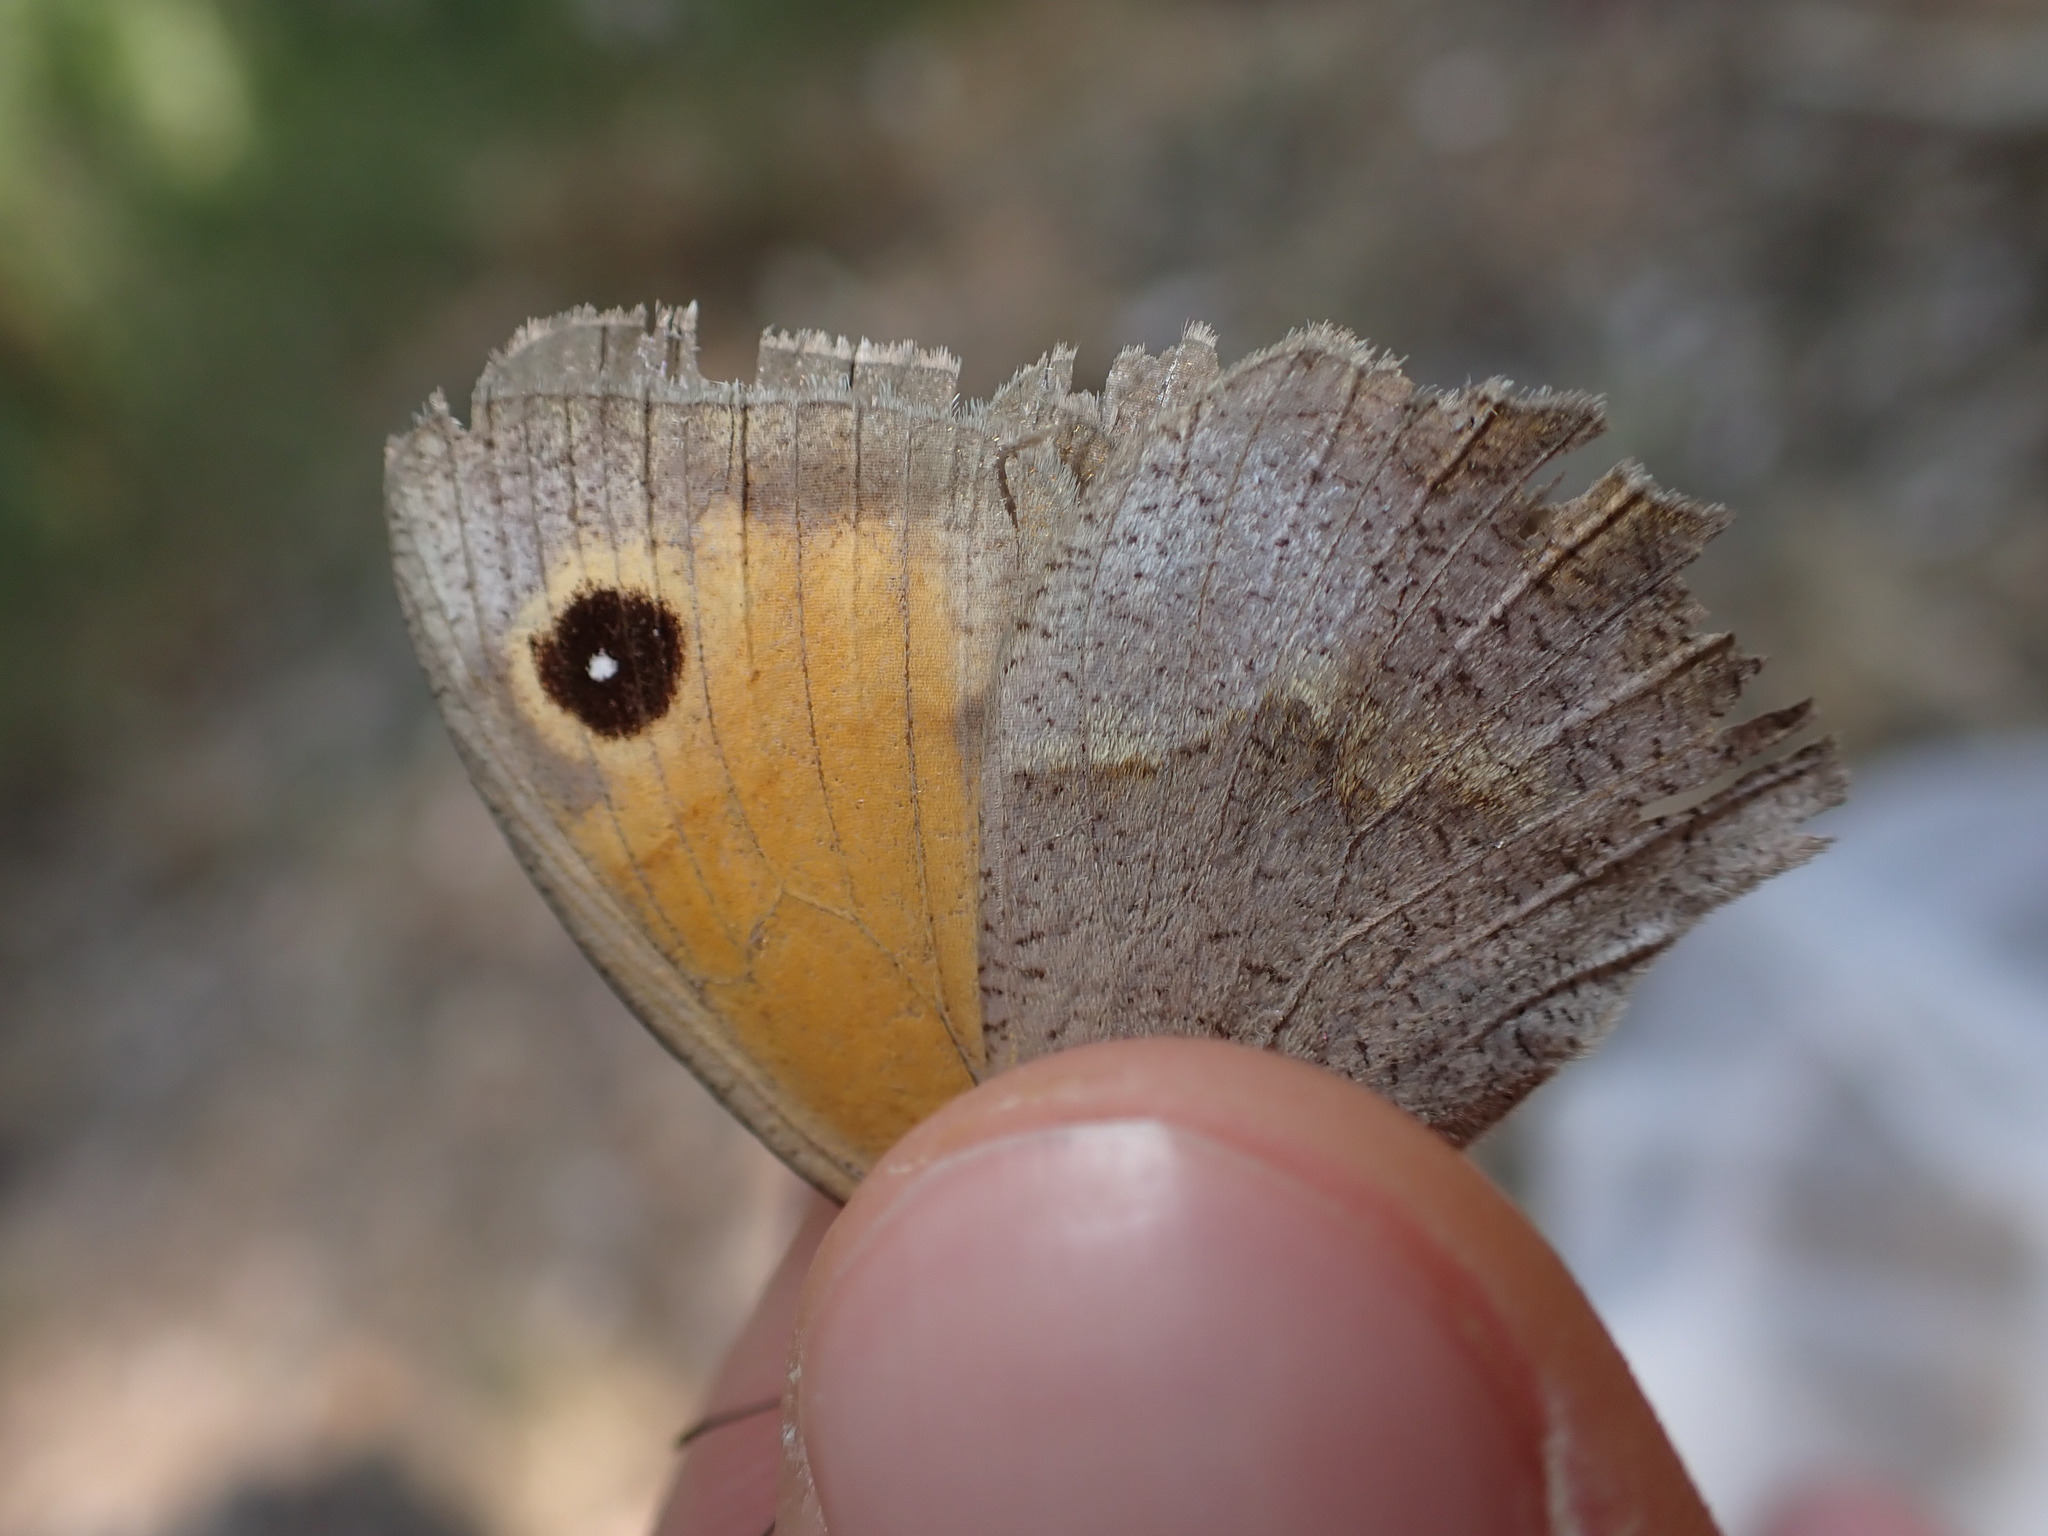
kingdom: Animalia
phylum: Arthropoda
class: Insecta
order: Lepidoptera
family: Nymphalidae
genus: Maniola
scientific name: Maniola jurtina
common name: Meadow brown
